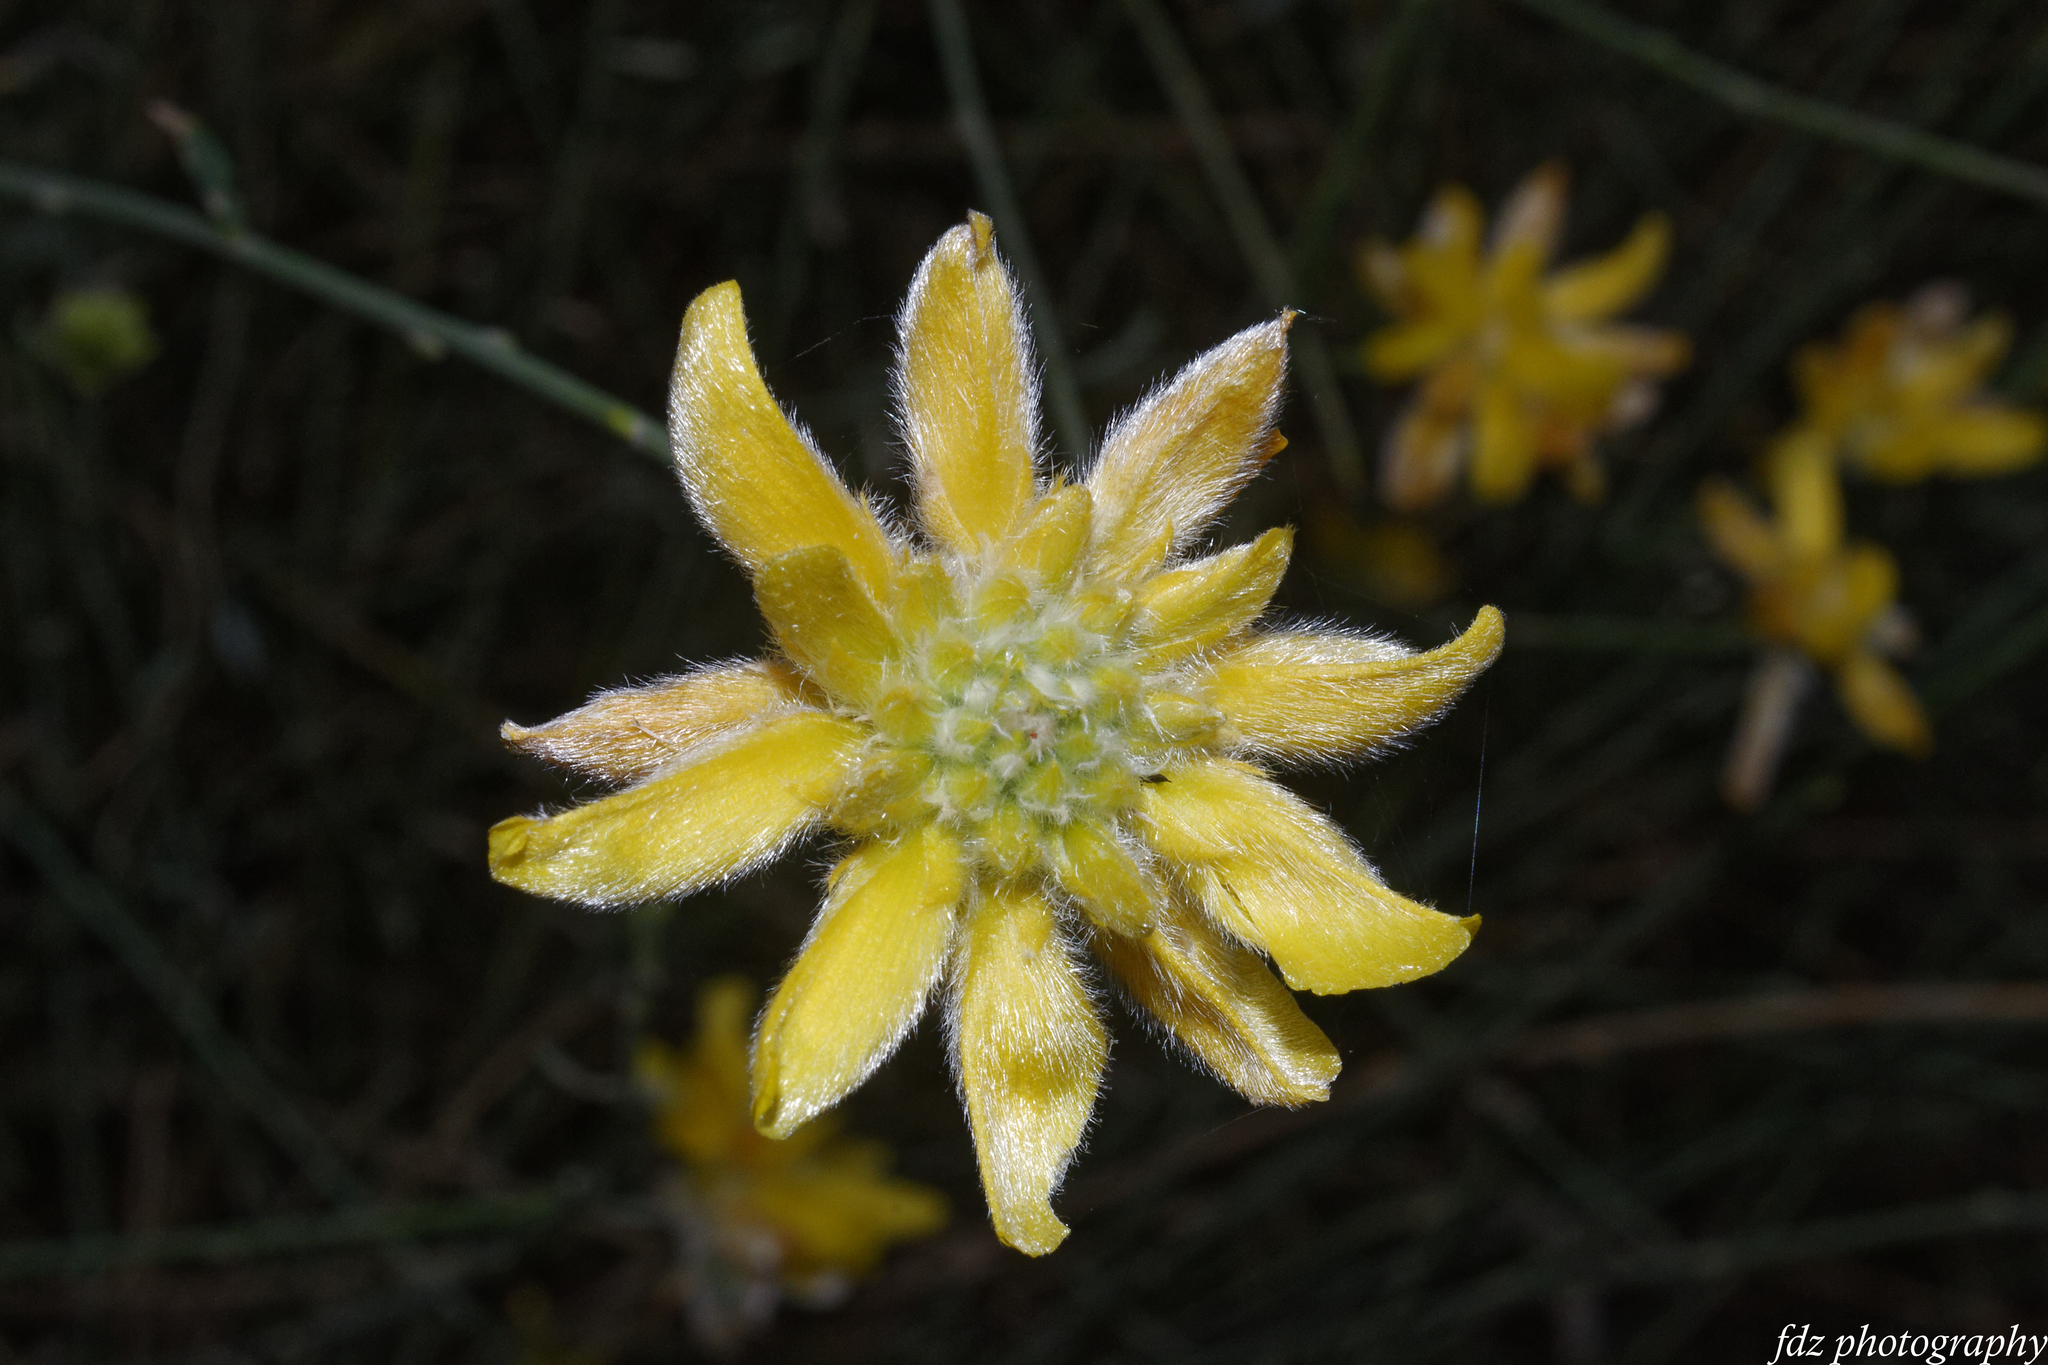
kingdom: Plantae
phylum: Tracheophyta
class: Magnoliopsida
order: Fabales
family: Fabaceae
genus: Genista
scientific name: Genista umbellata
